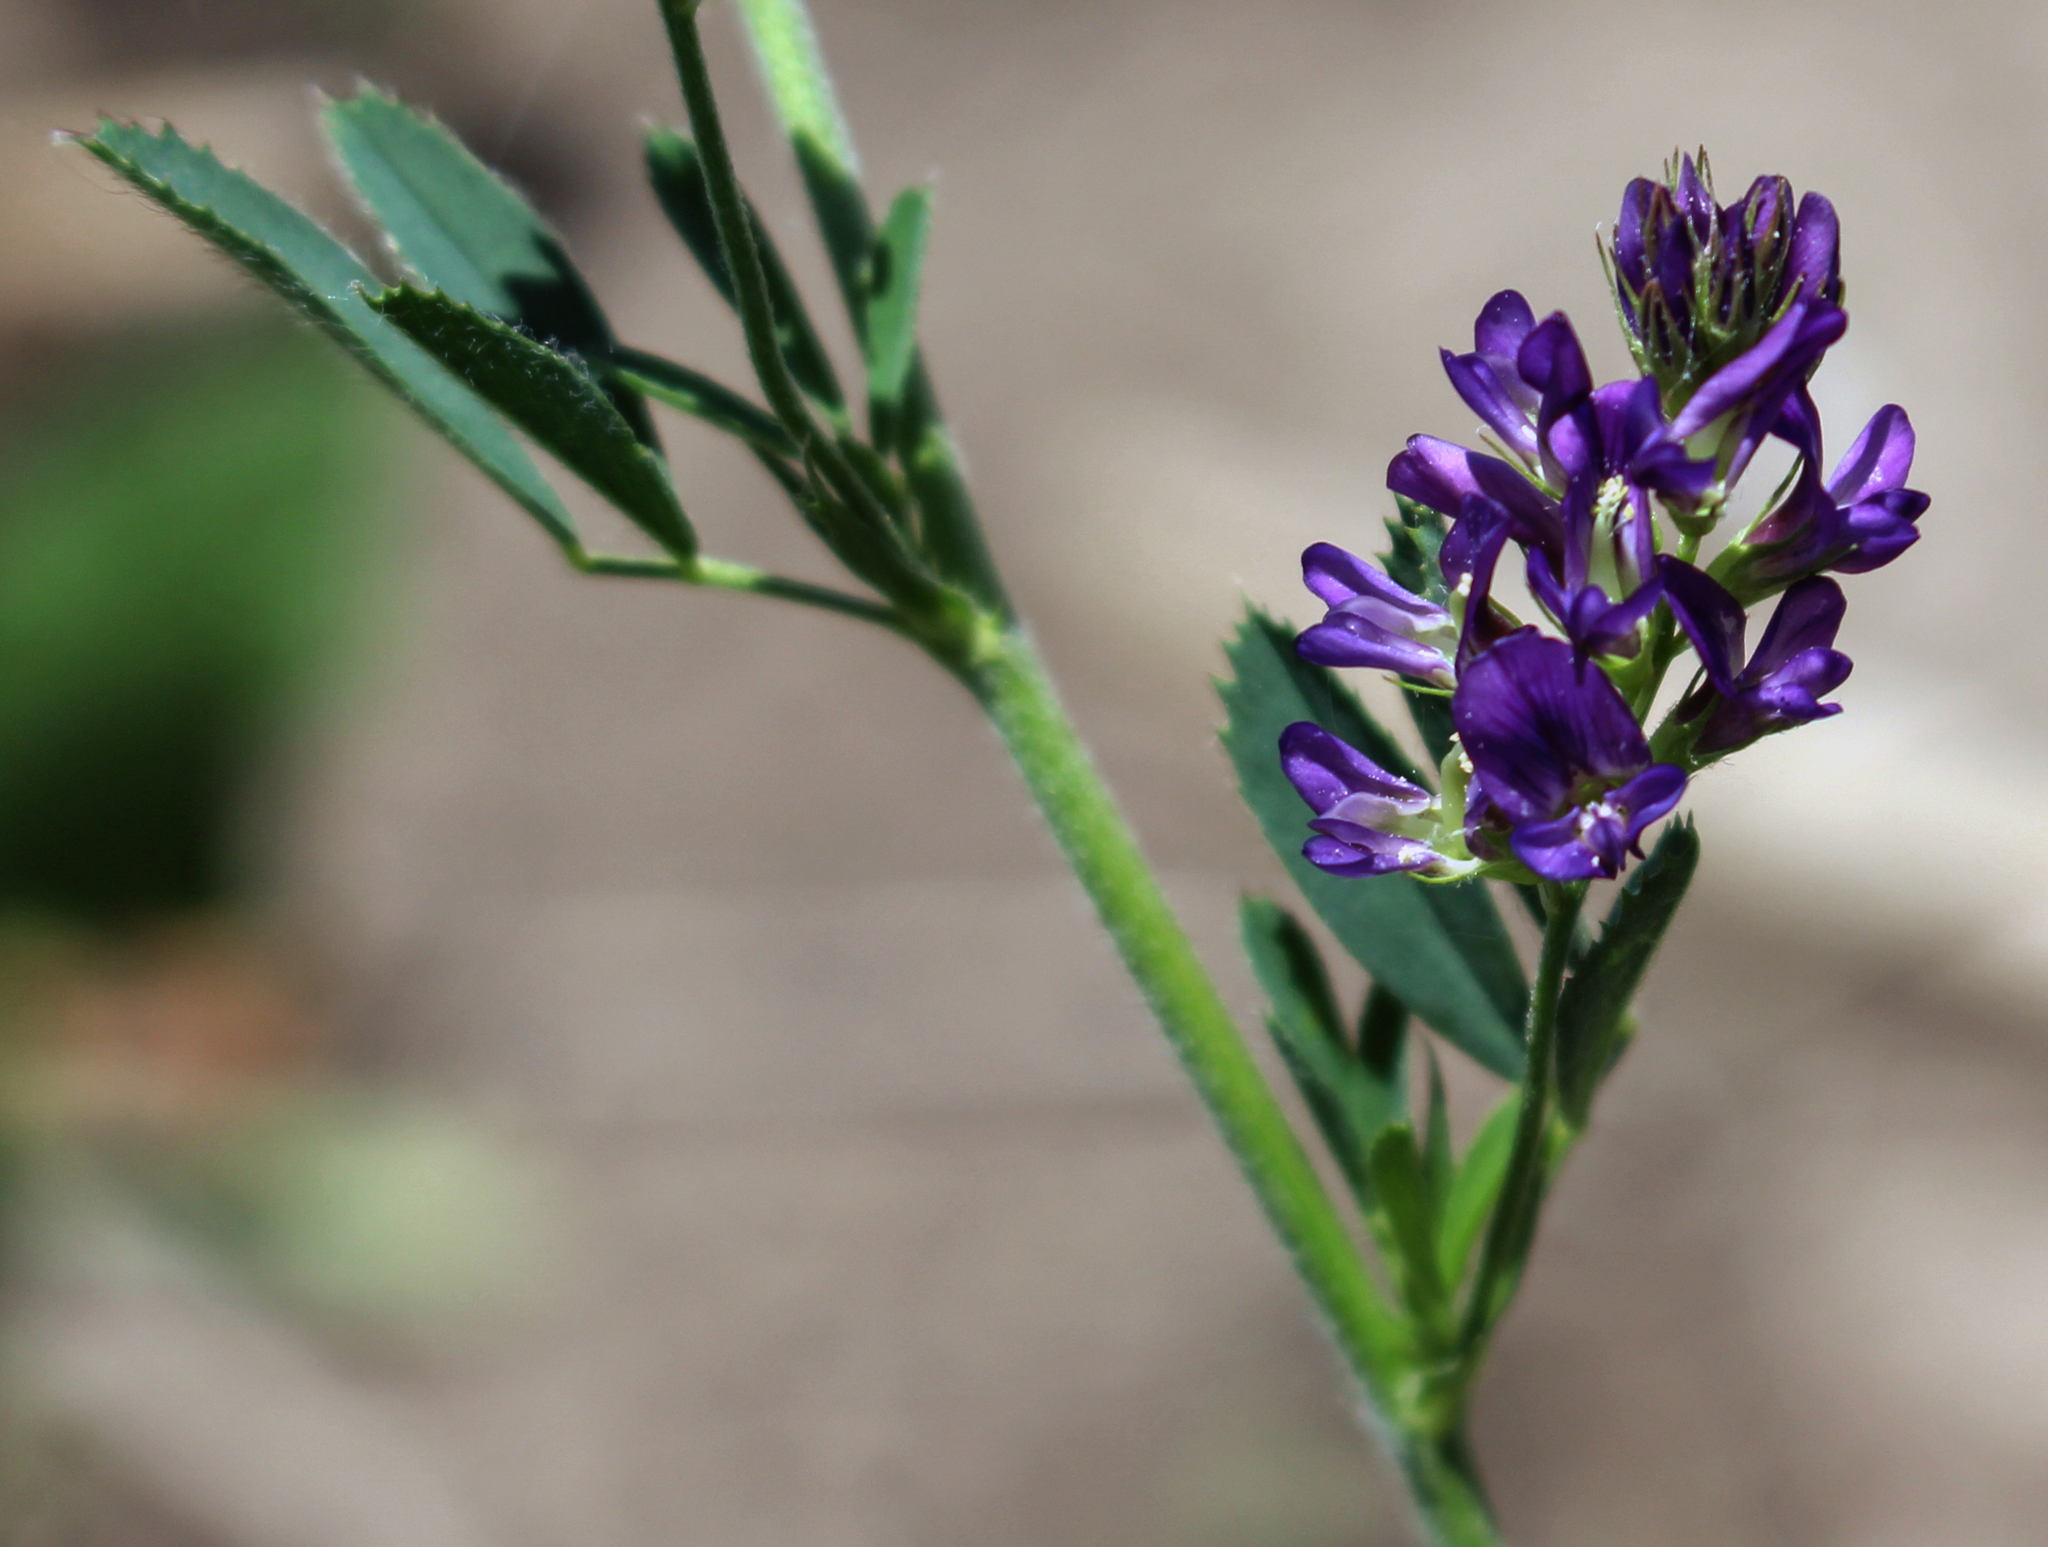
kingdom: Plantae
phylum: Tracheophyta
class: Magnoliopsida
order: Fabales
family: Fabaceae
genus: Medicago
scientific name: Medicago sativa
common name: Alfalfa
